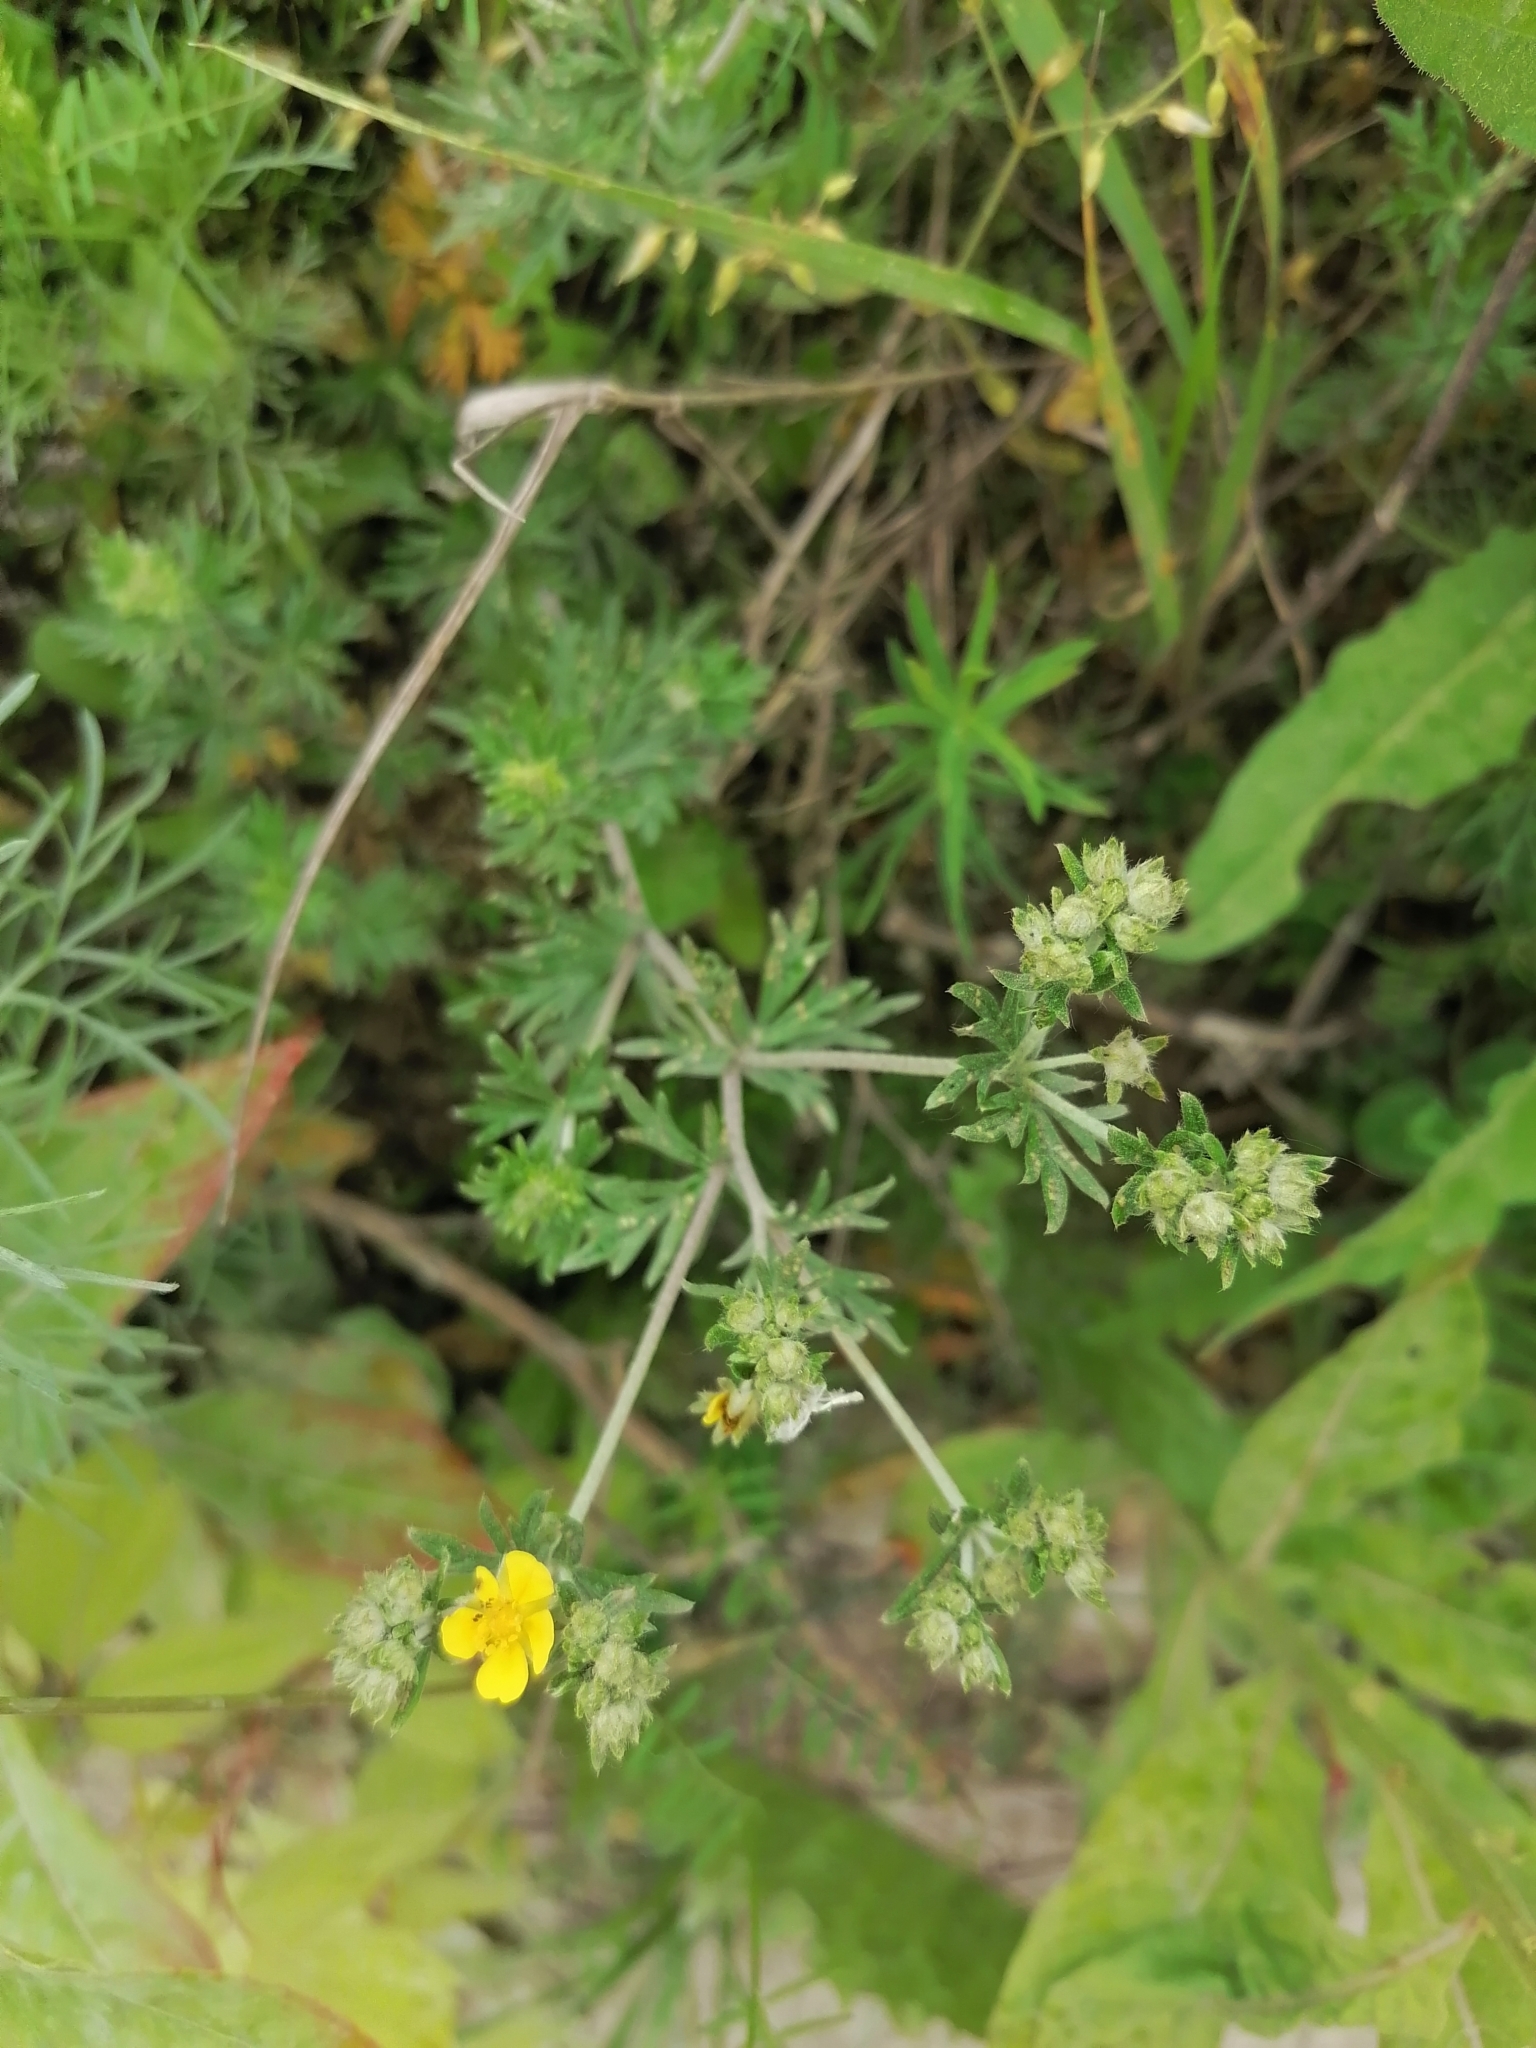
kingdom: Plantae
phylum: Tracheophyta
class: Magnoliopsida
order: Rosales
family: Rosaceae
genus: Potentilla
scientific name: Potentilla argentea
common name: Hoary cinquefoil
